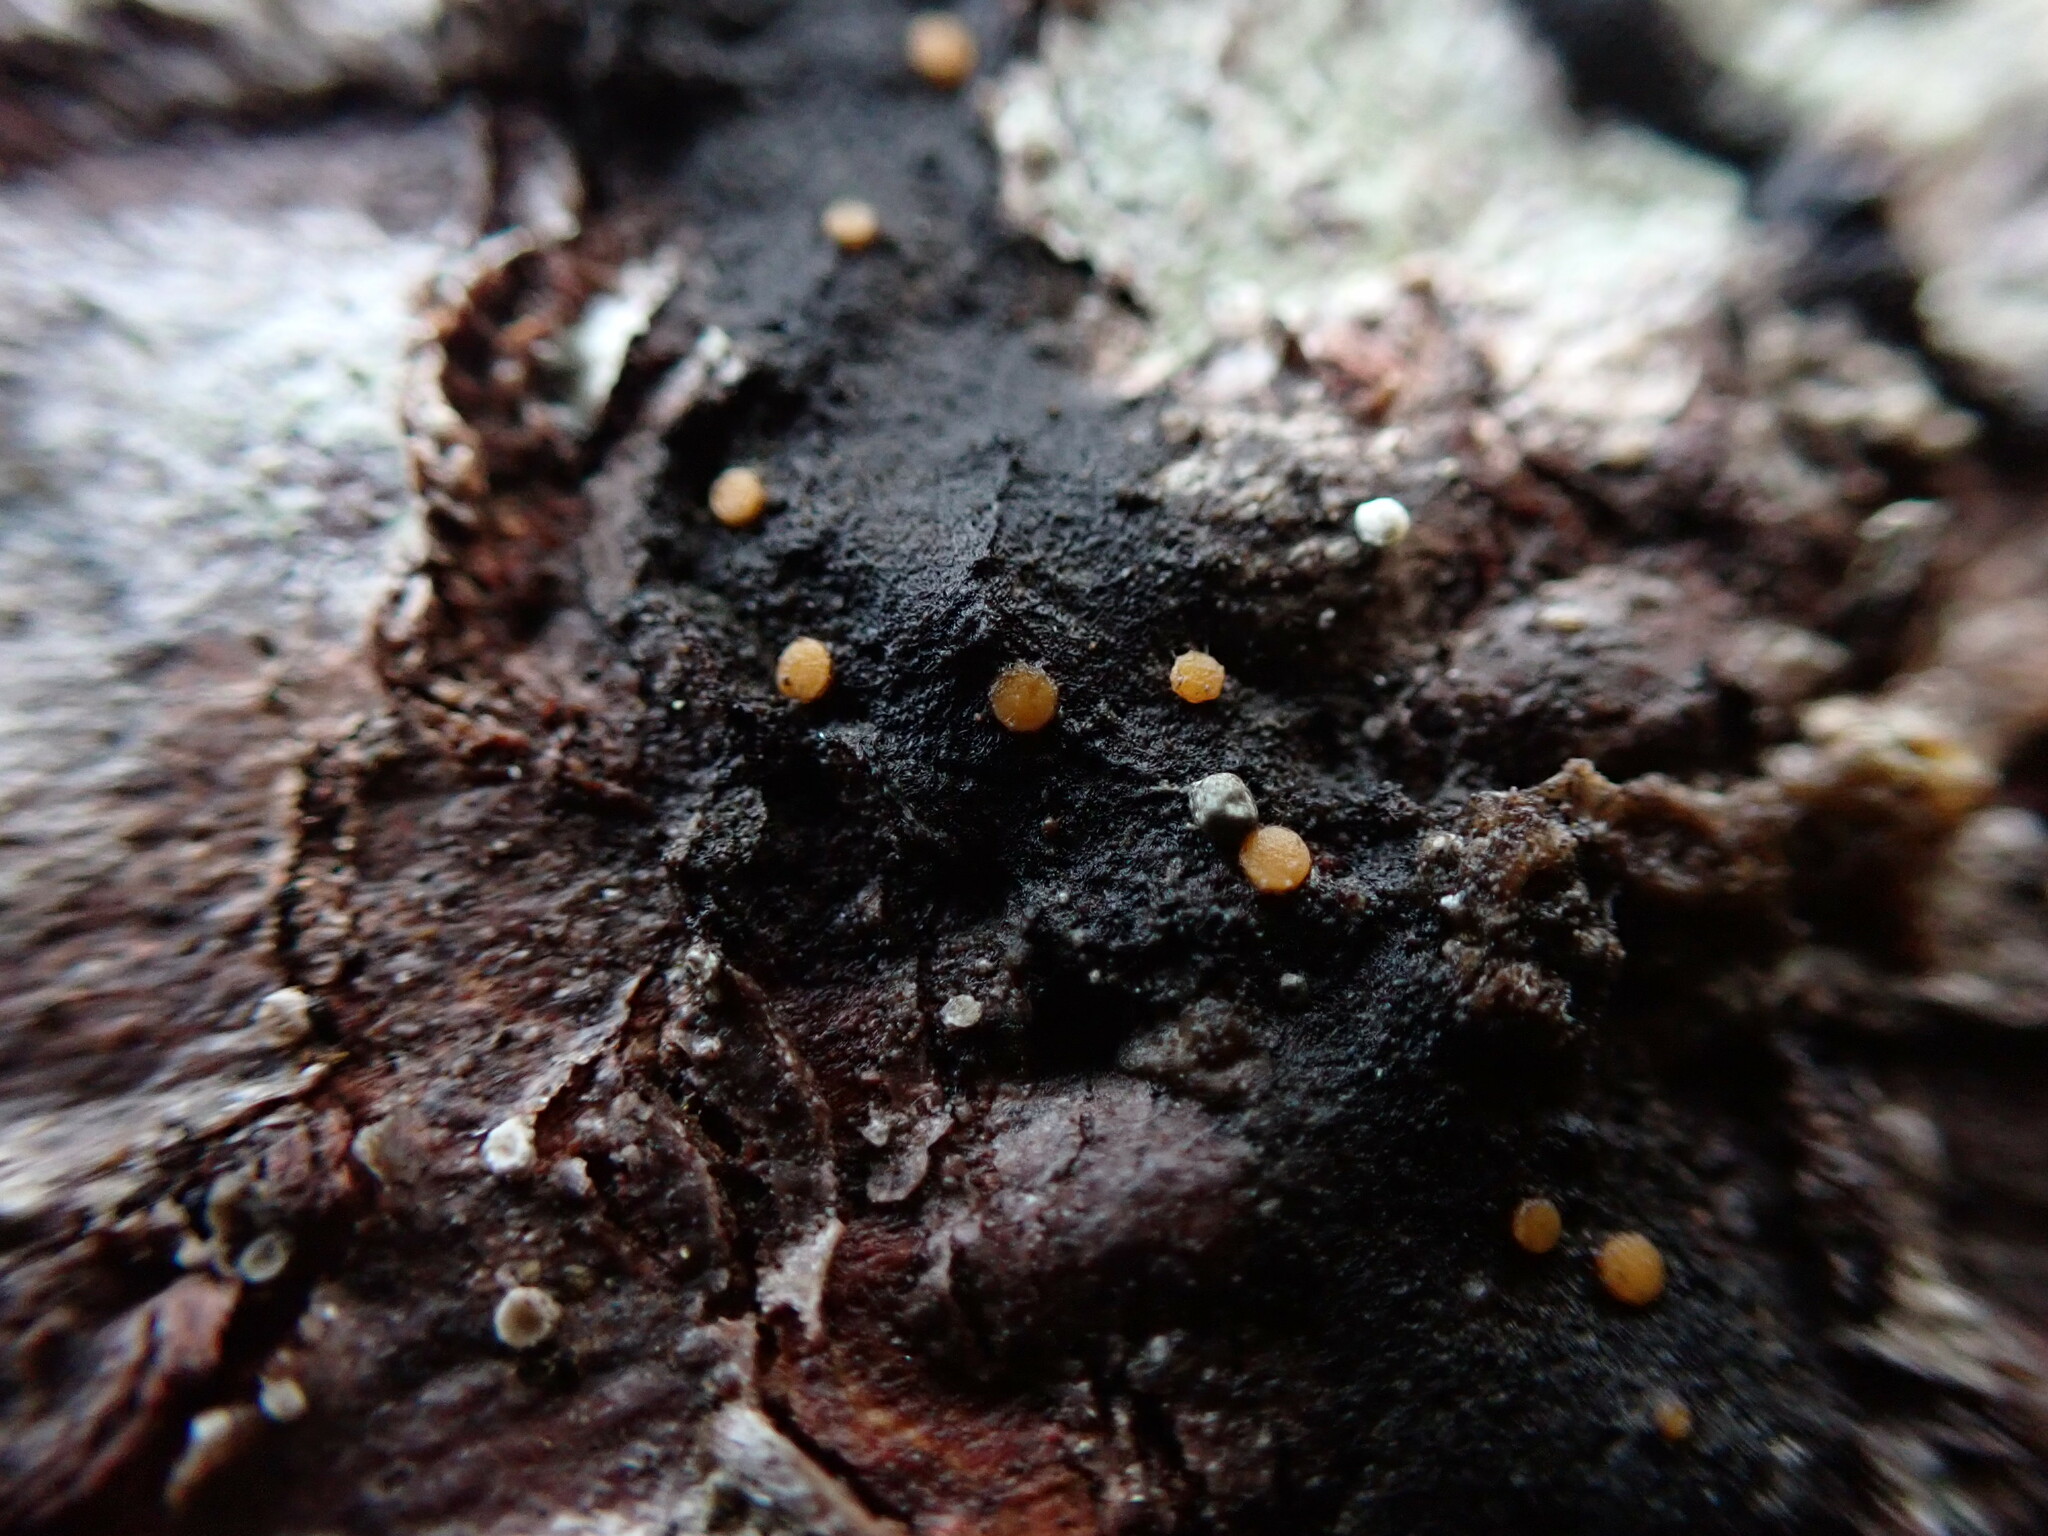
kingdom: Fungi
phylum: Ascomycota
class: Sareomycetes
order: Sareales
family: Sareaceae
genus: Sarea
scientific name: Sarea resinae
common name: Sarea lichen
